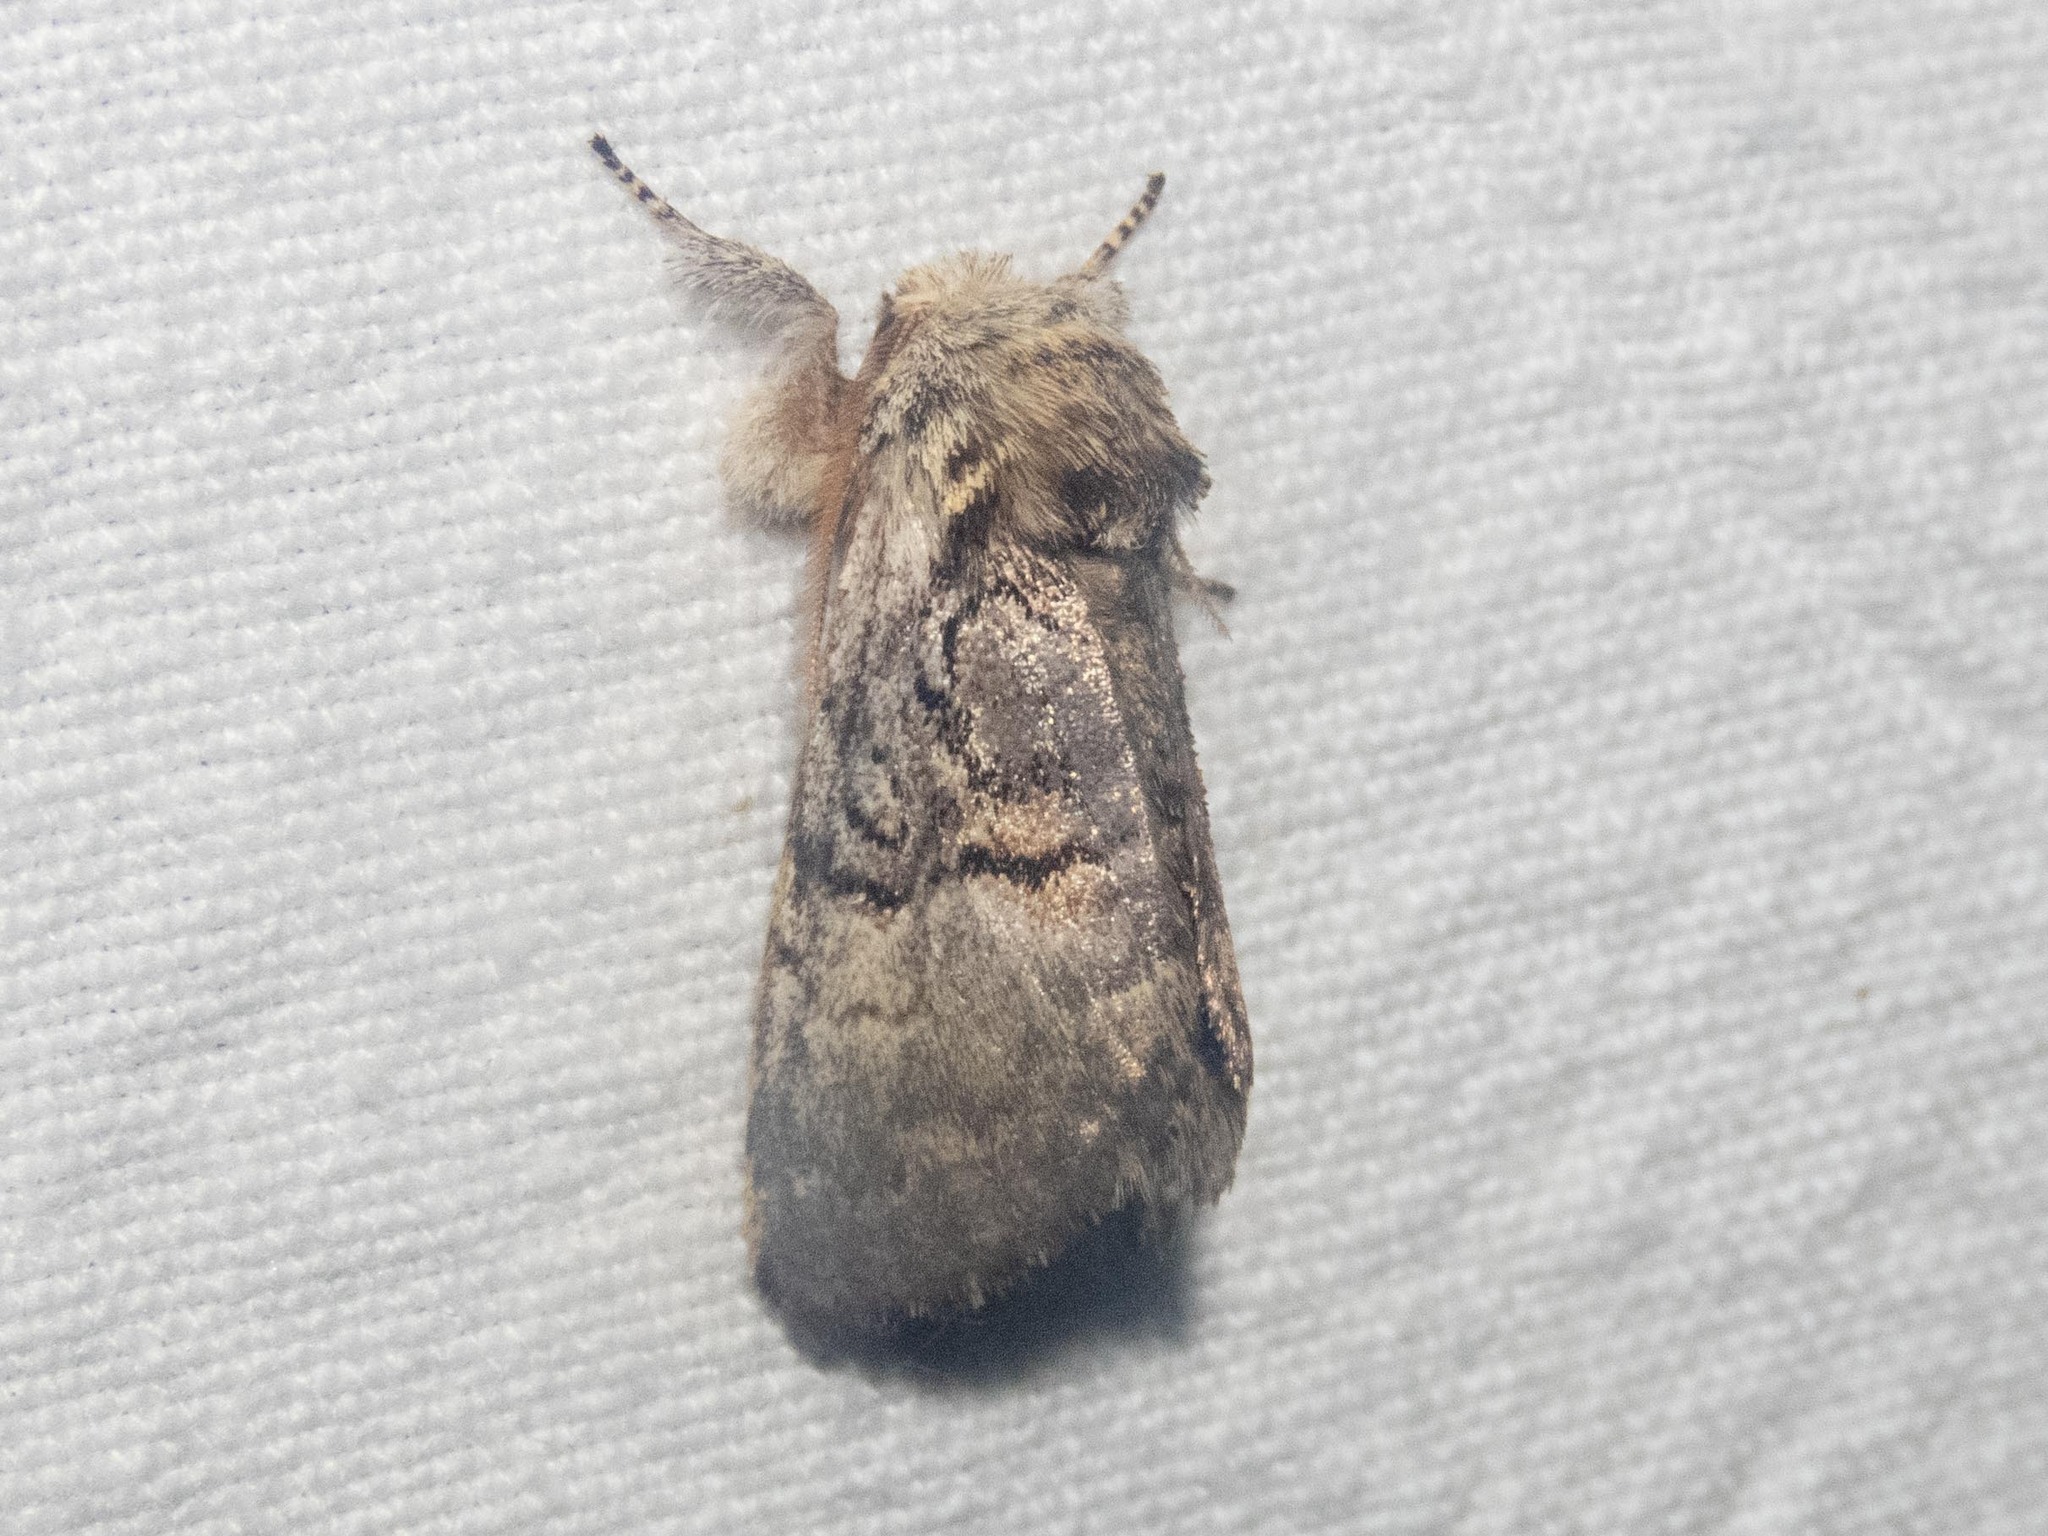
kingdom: Animalia
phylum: Arthropoda
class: Insecta
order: Lepidoptera
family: Noctuidae
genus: Colocasia
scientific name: Colocasia coryli
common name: Nut-tree tussock
